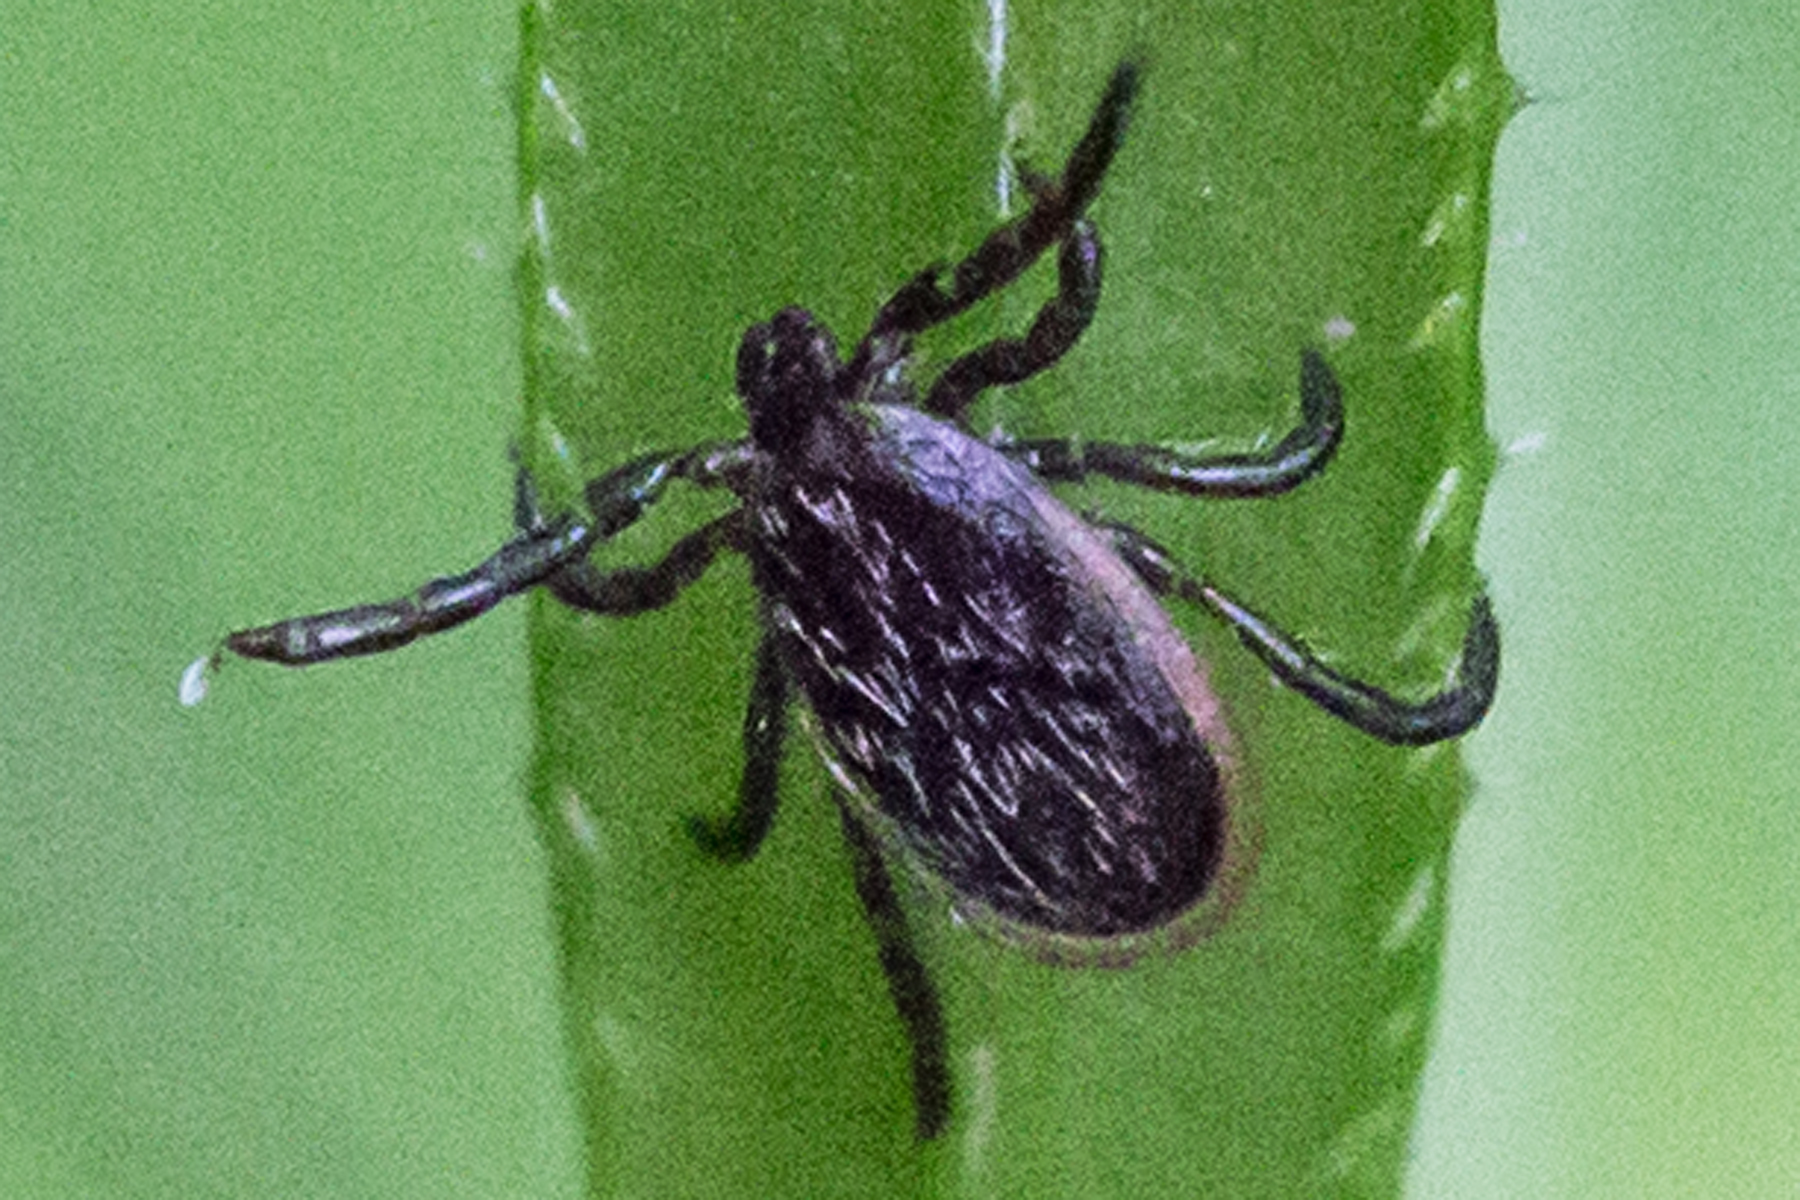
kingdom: Animalia
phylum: Arthropoda
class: Arachnida
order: Ixodida
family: Ixodidae
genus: Ixodes
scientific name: Ixodes scapularis
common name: Black legged tick
